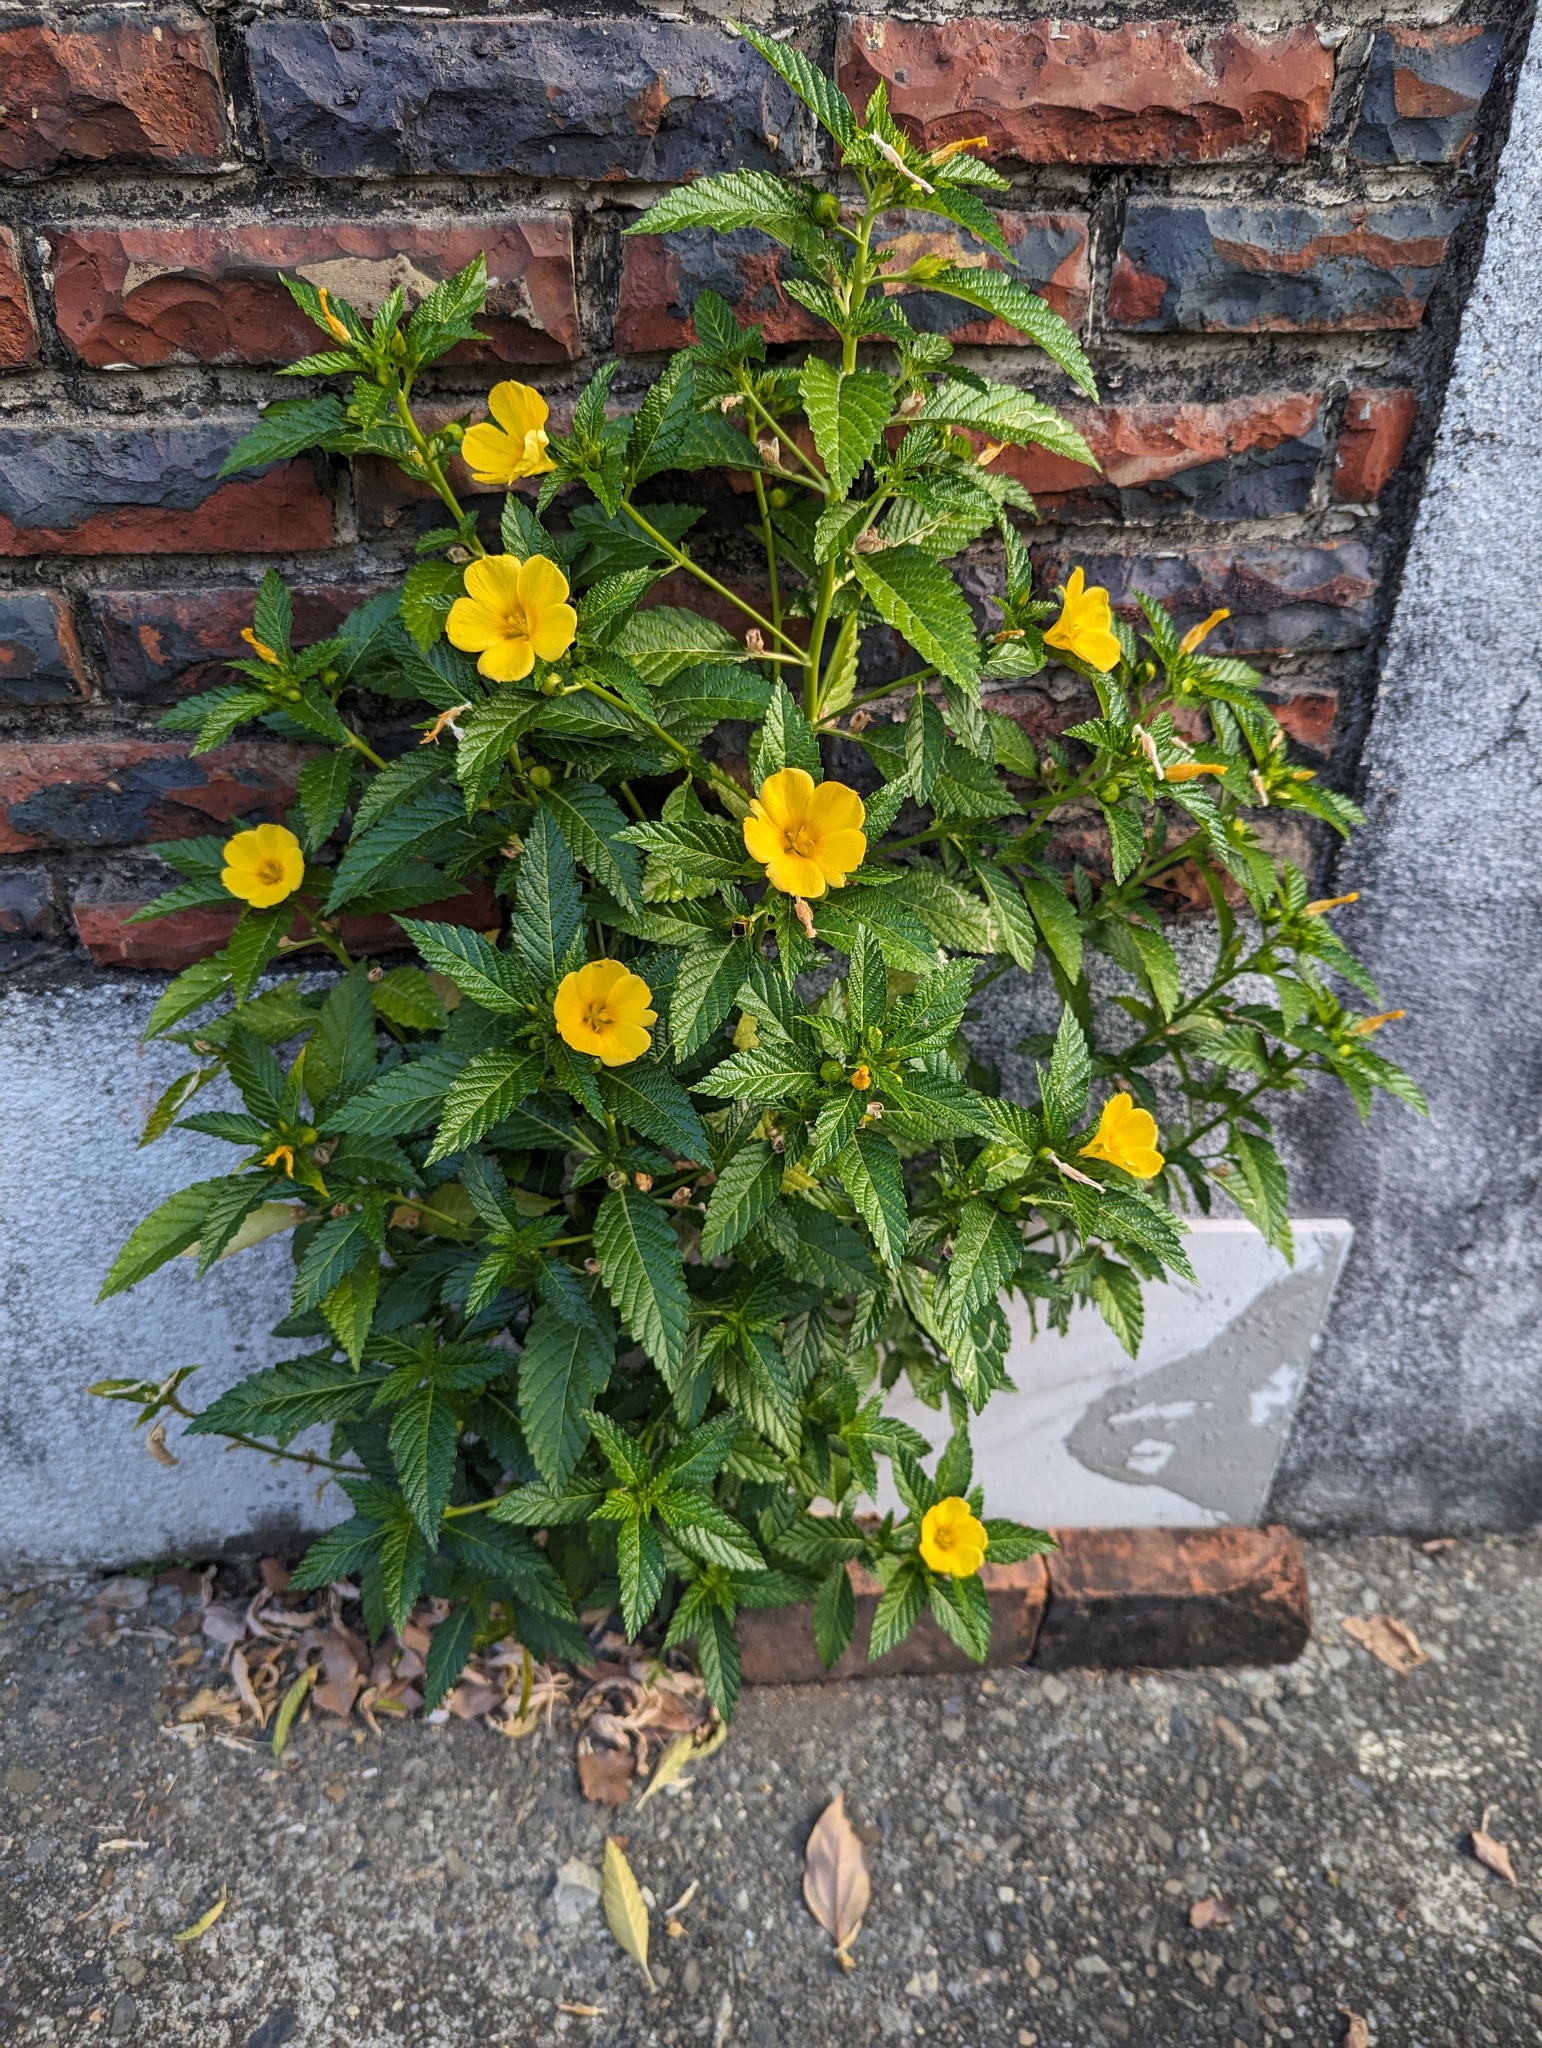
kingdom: Plantae
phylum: Tracheophyta
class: Magnoliopsida
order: Malpighiales
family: Turneraceae
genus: Turnera
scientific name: Turnera ulmifolia
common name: Ramgoat dashalong
